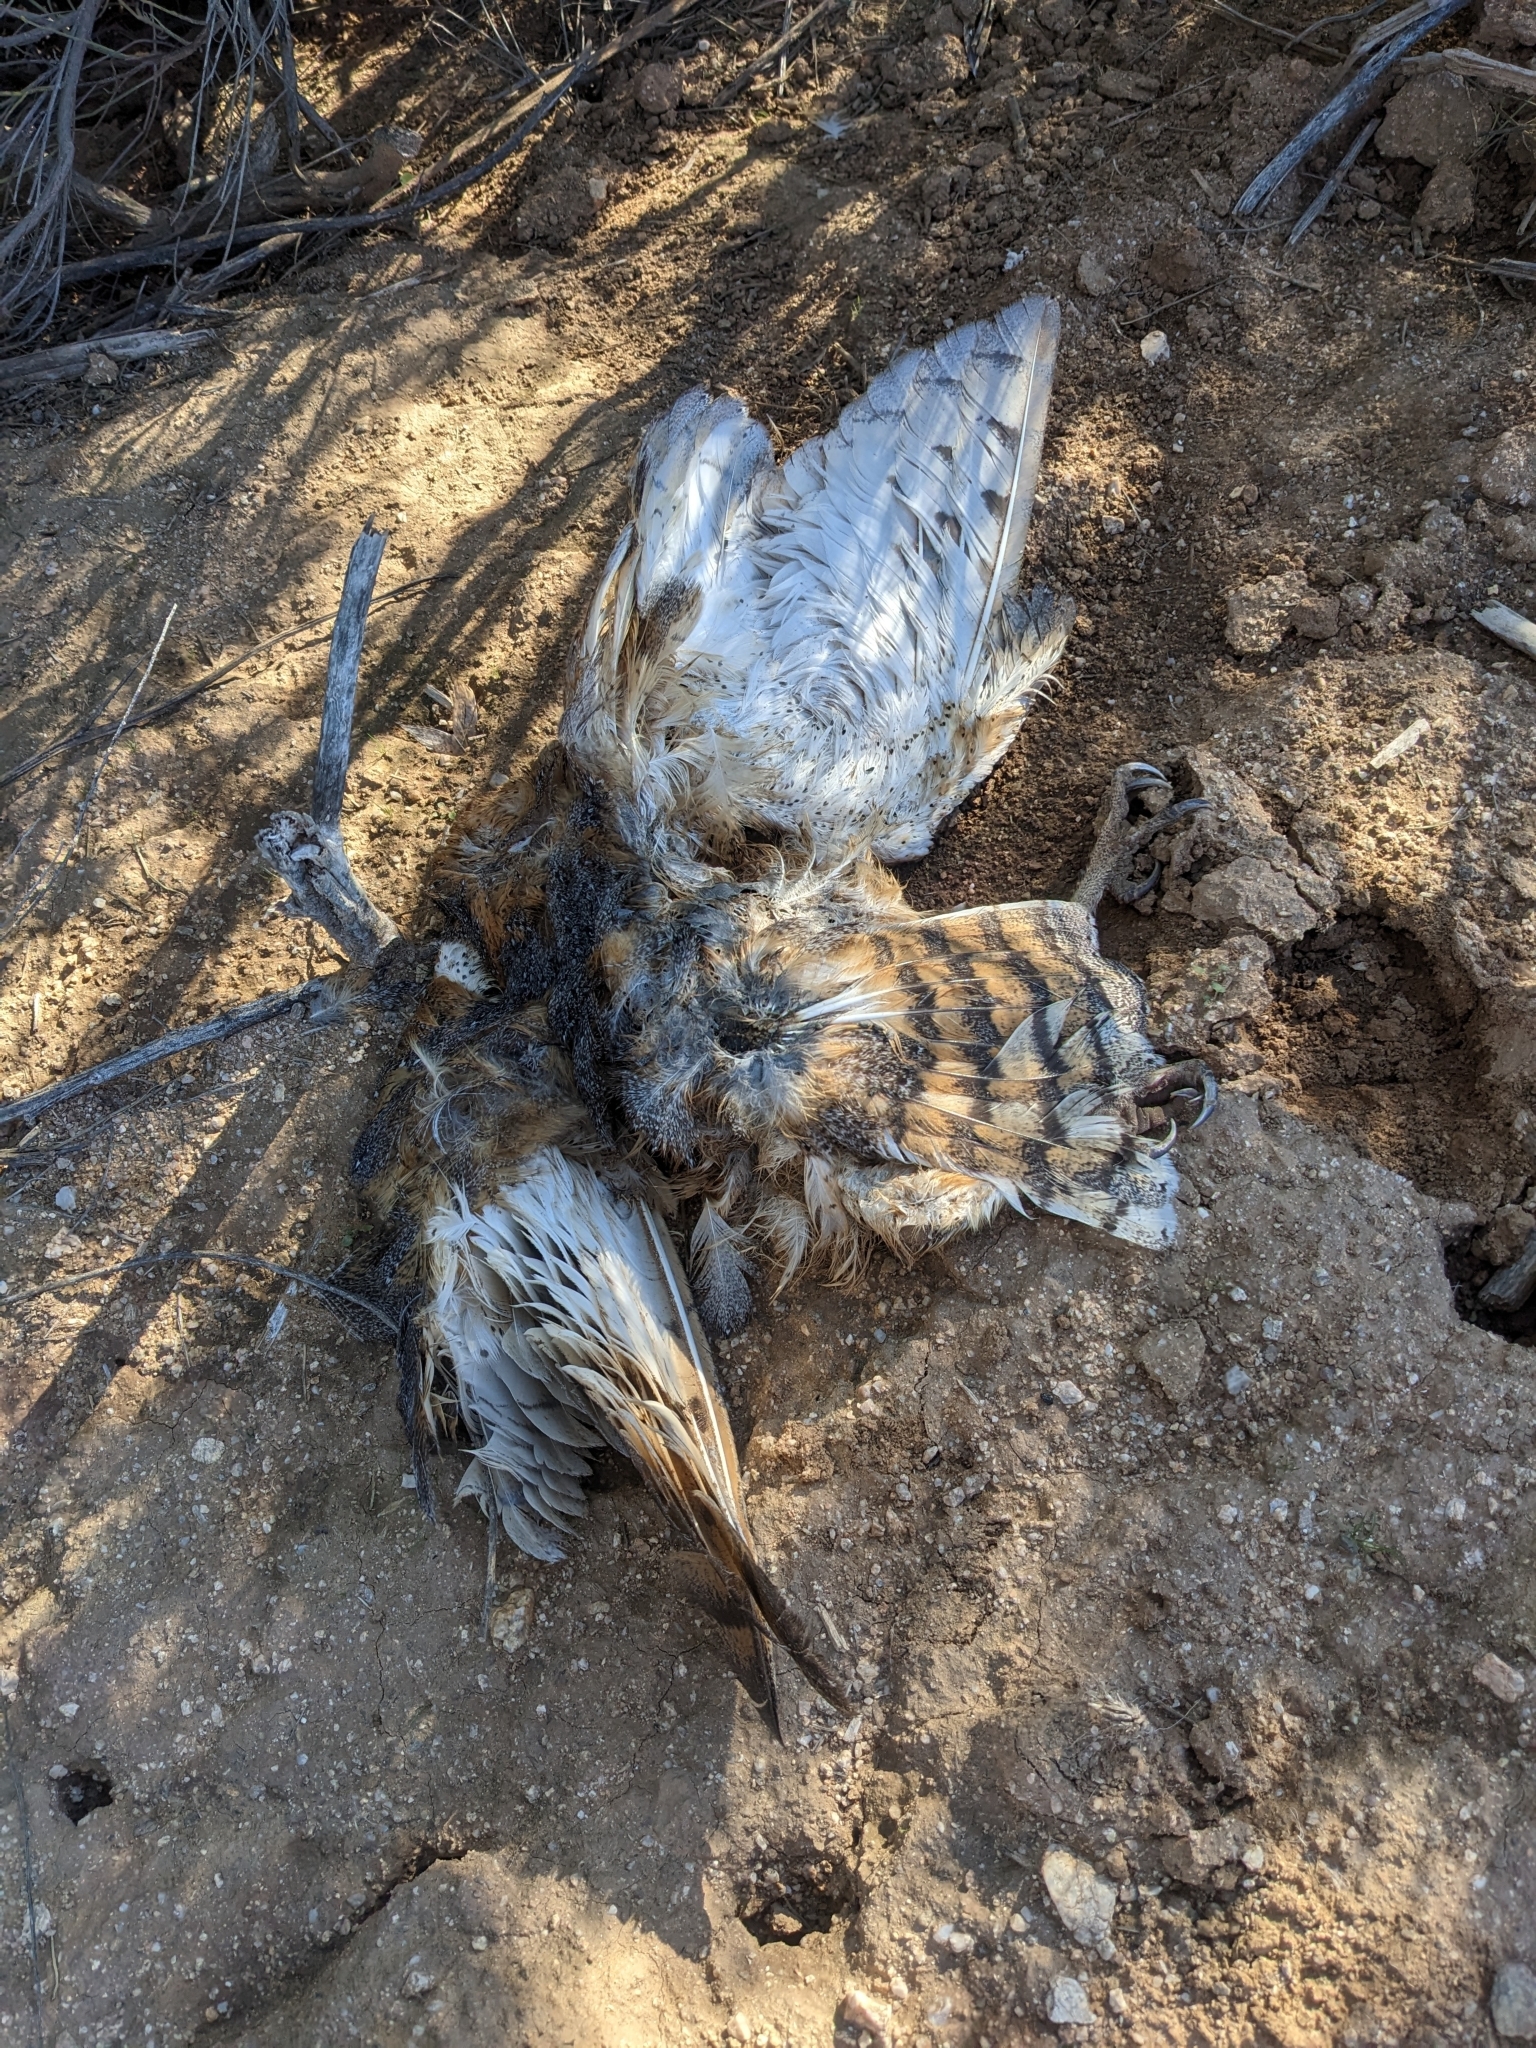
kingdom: Animalia
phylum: Chordata
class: Aves
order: Strigiformes
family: Tytonidae
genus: Tyto
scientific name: Tyto alba
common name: Barn owl
